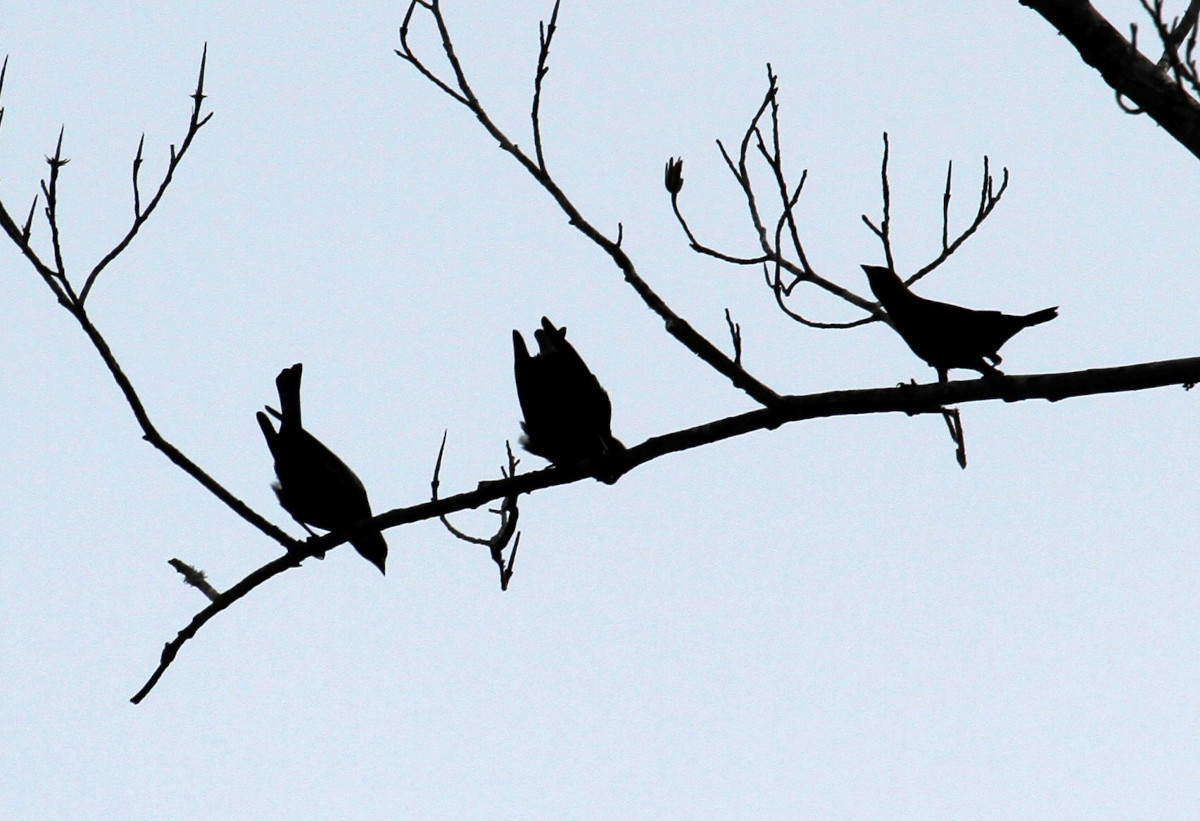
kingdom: Animalia
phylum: Chordata
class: Aves
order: Passeriformes
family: Icteridae
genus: Molothrus
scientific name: Molothrus ater
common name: Brown-headed cowbird
